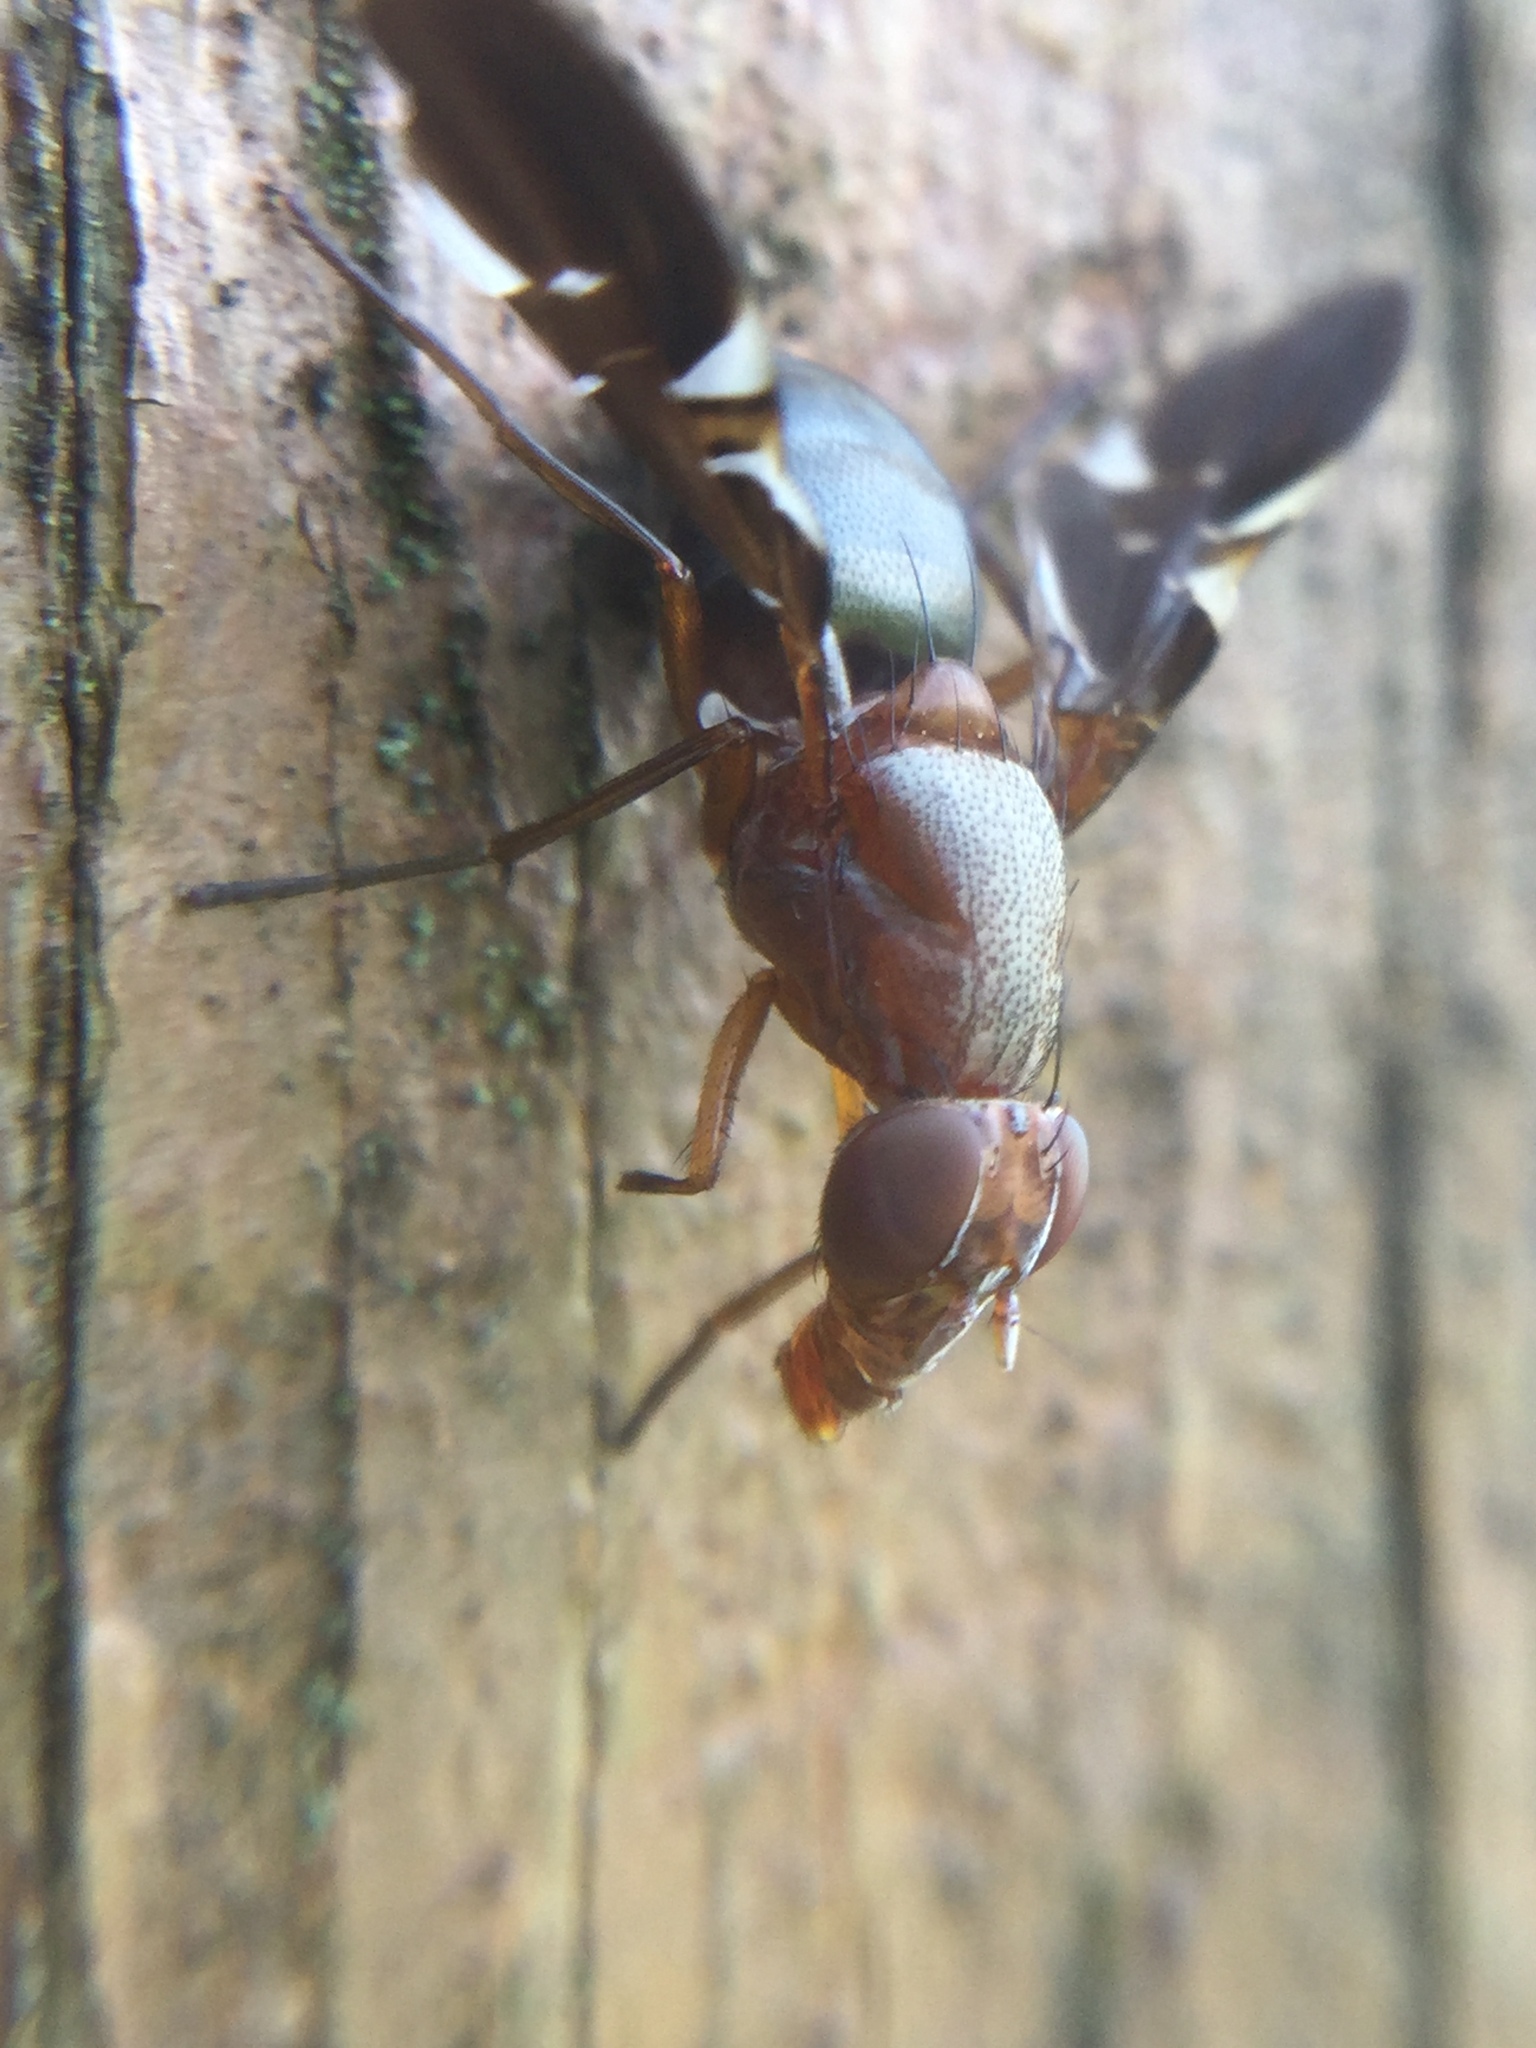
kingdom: Animalia
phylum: Arthropoda
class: Insecta
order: Diptera
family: Ulidiidae
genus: Delphinia
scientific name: Delphinia picta
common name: Common picture-winged fly
